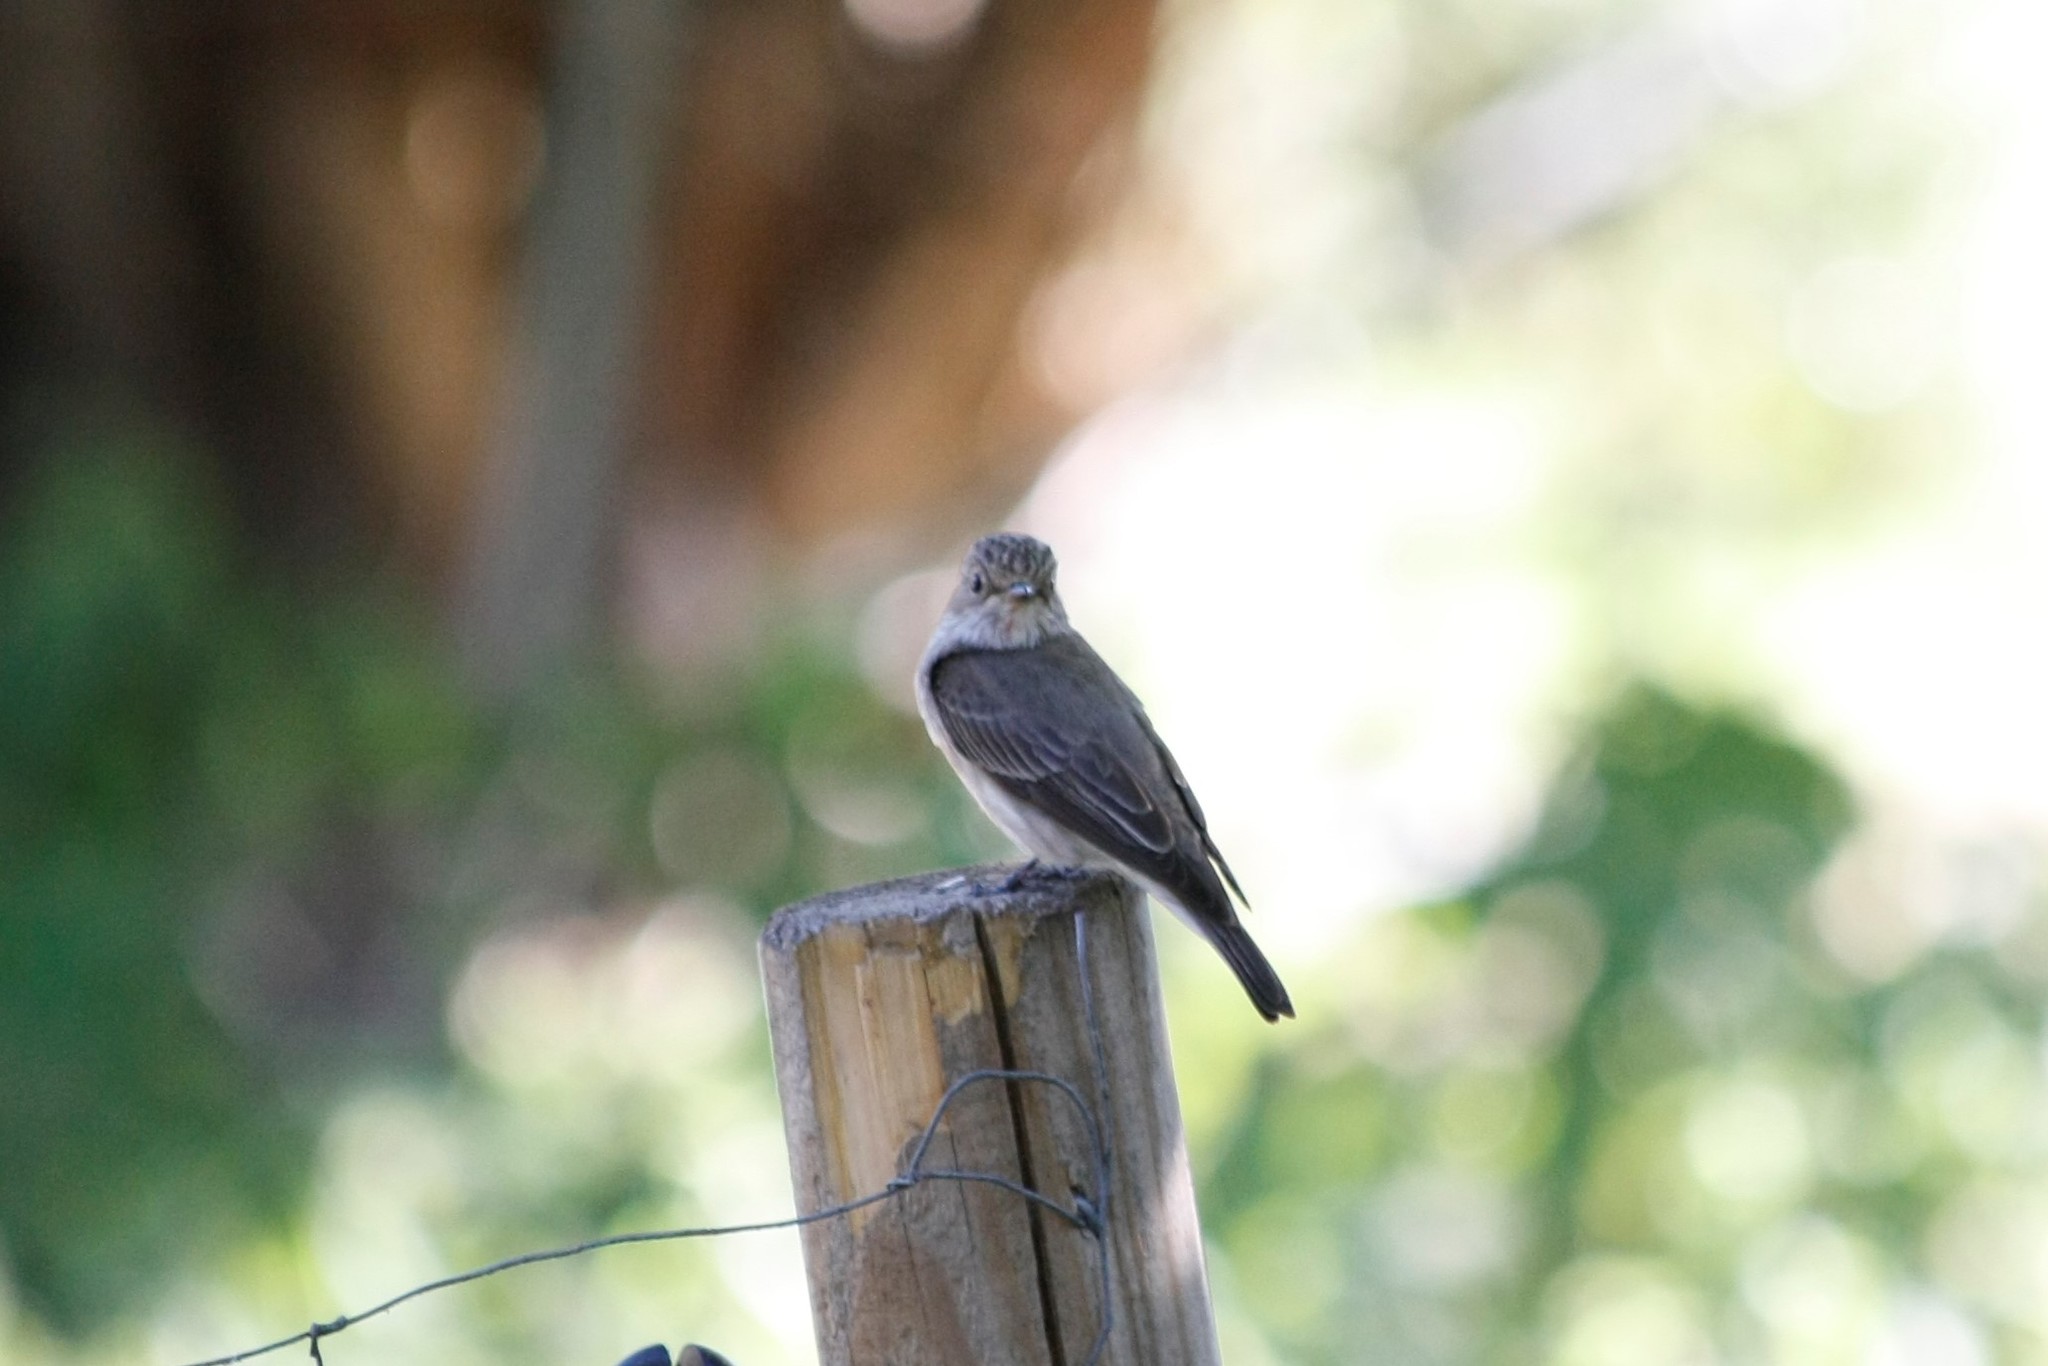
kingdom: Animalia
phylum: Chordata
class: Aves
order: Passeriformes
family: Muscicapidae
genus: Muscicapa
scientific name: Muscicapa striata
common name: Spotted flycatcher
